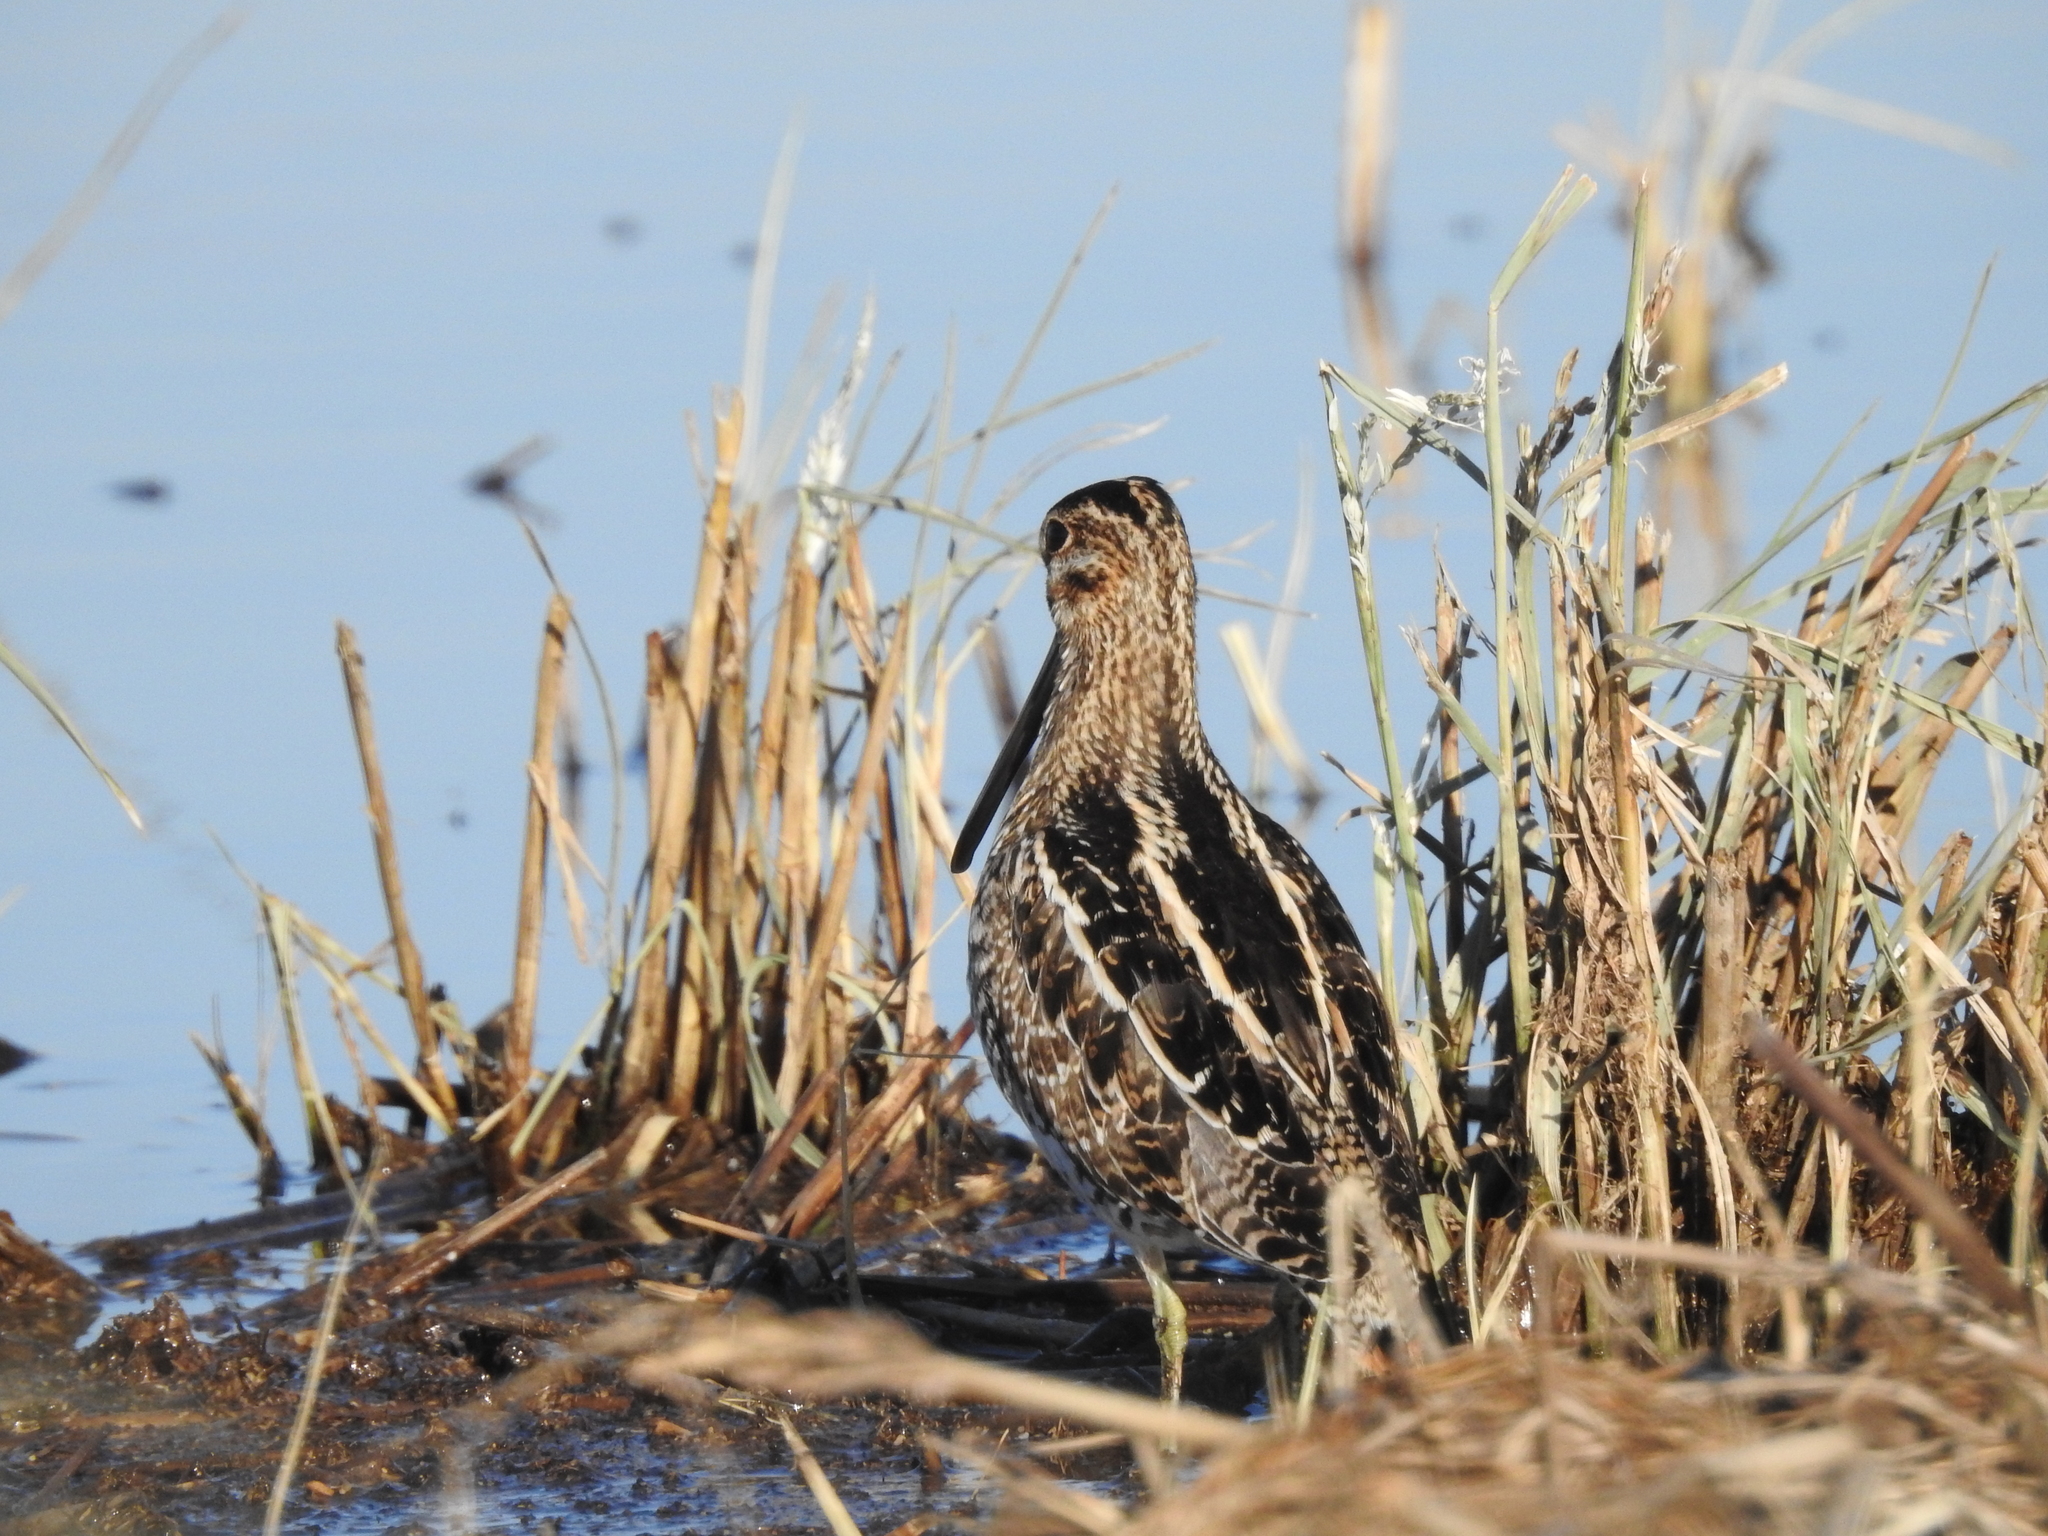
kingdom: Animalia
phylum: Chordata
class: Aves
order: Charadriiformes
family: Scolopacidae
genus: Gallinago
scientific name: Gallinago delicata
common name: Wilson's snipe
